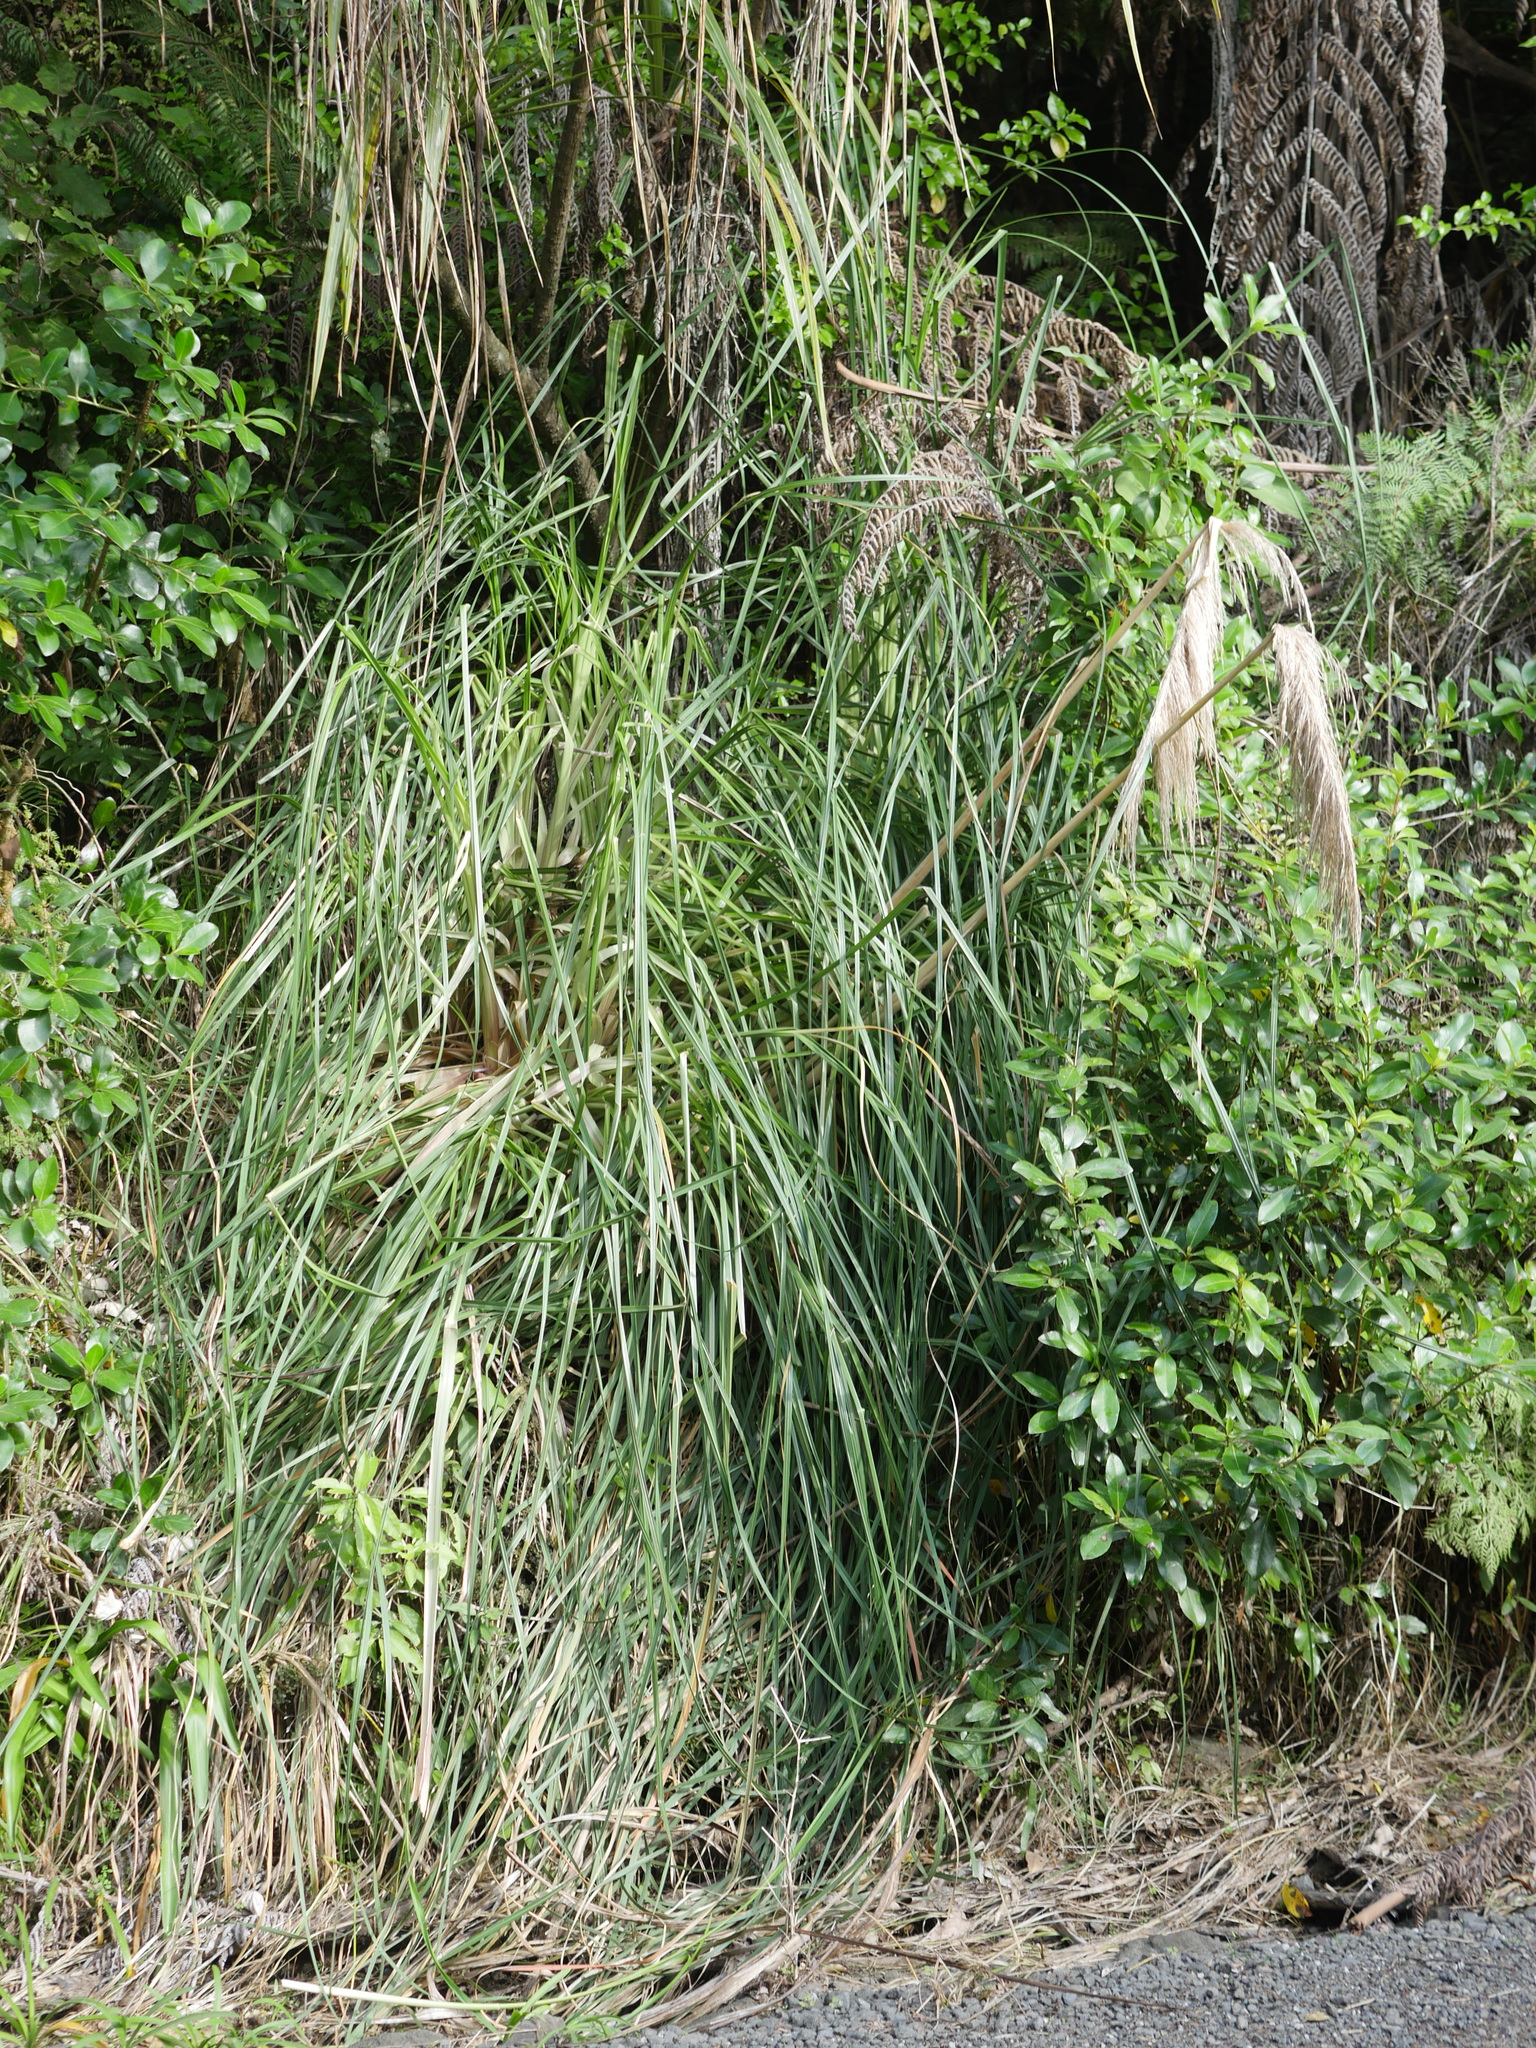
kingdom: Plantae
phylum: Tracheophyta
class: Liliopsida
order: Poales
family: Poaceae
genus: Cortaderia
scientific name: Cortaderia jubata
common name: Purple pampas grass
